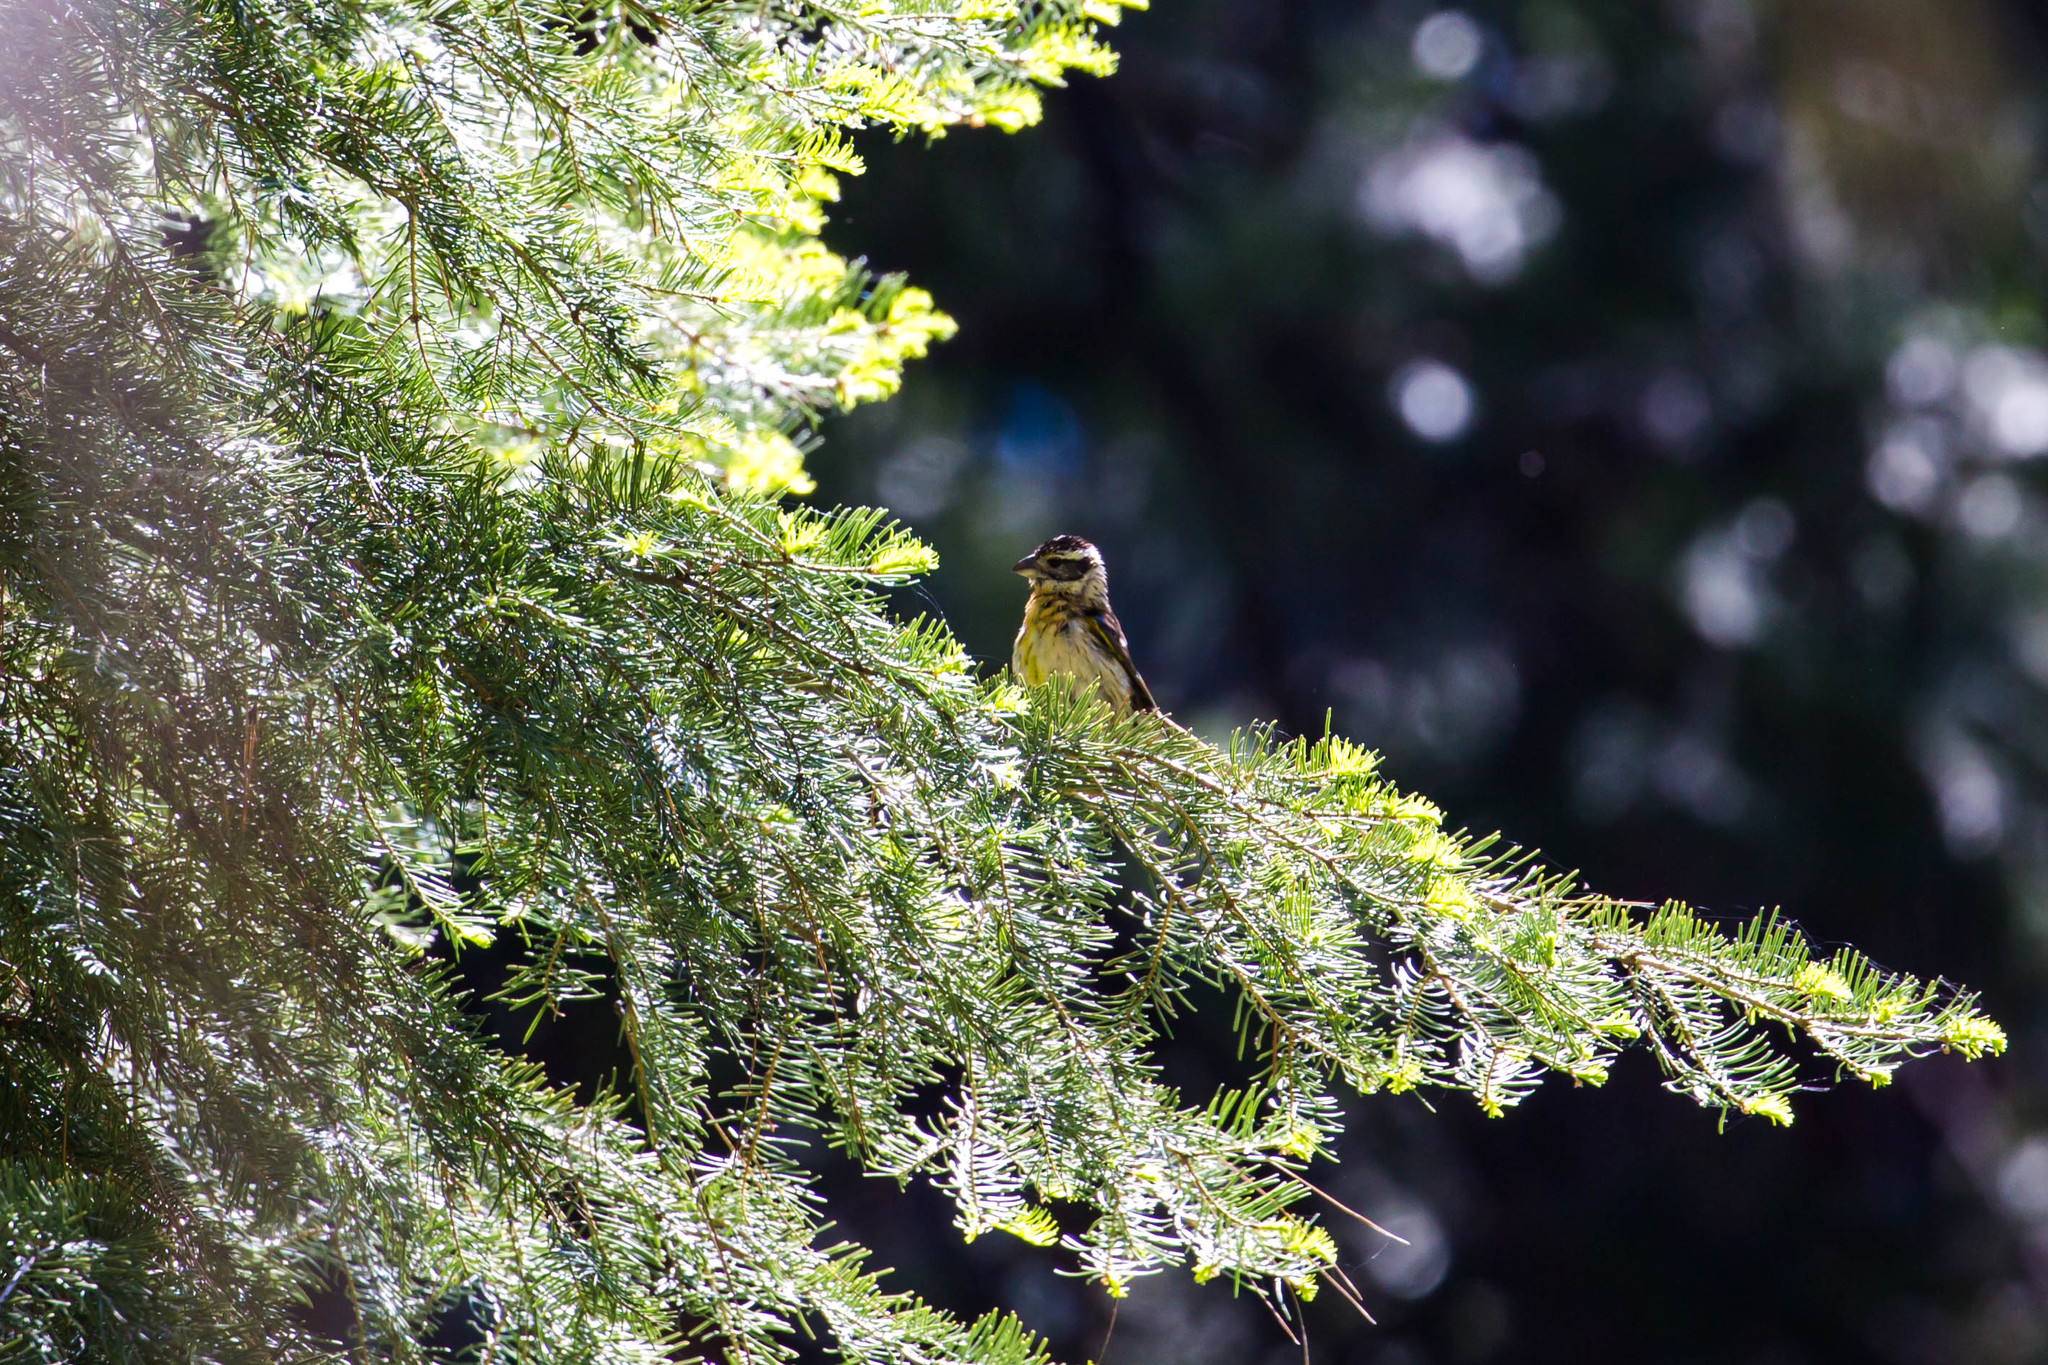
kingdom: Animalia
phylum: Chordata
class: Aves
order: Passeriformes
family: Cardinalidae
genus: Pheucticus
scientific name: Pheucticus melanocephalus
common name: Black-headed grosbeak
